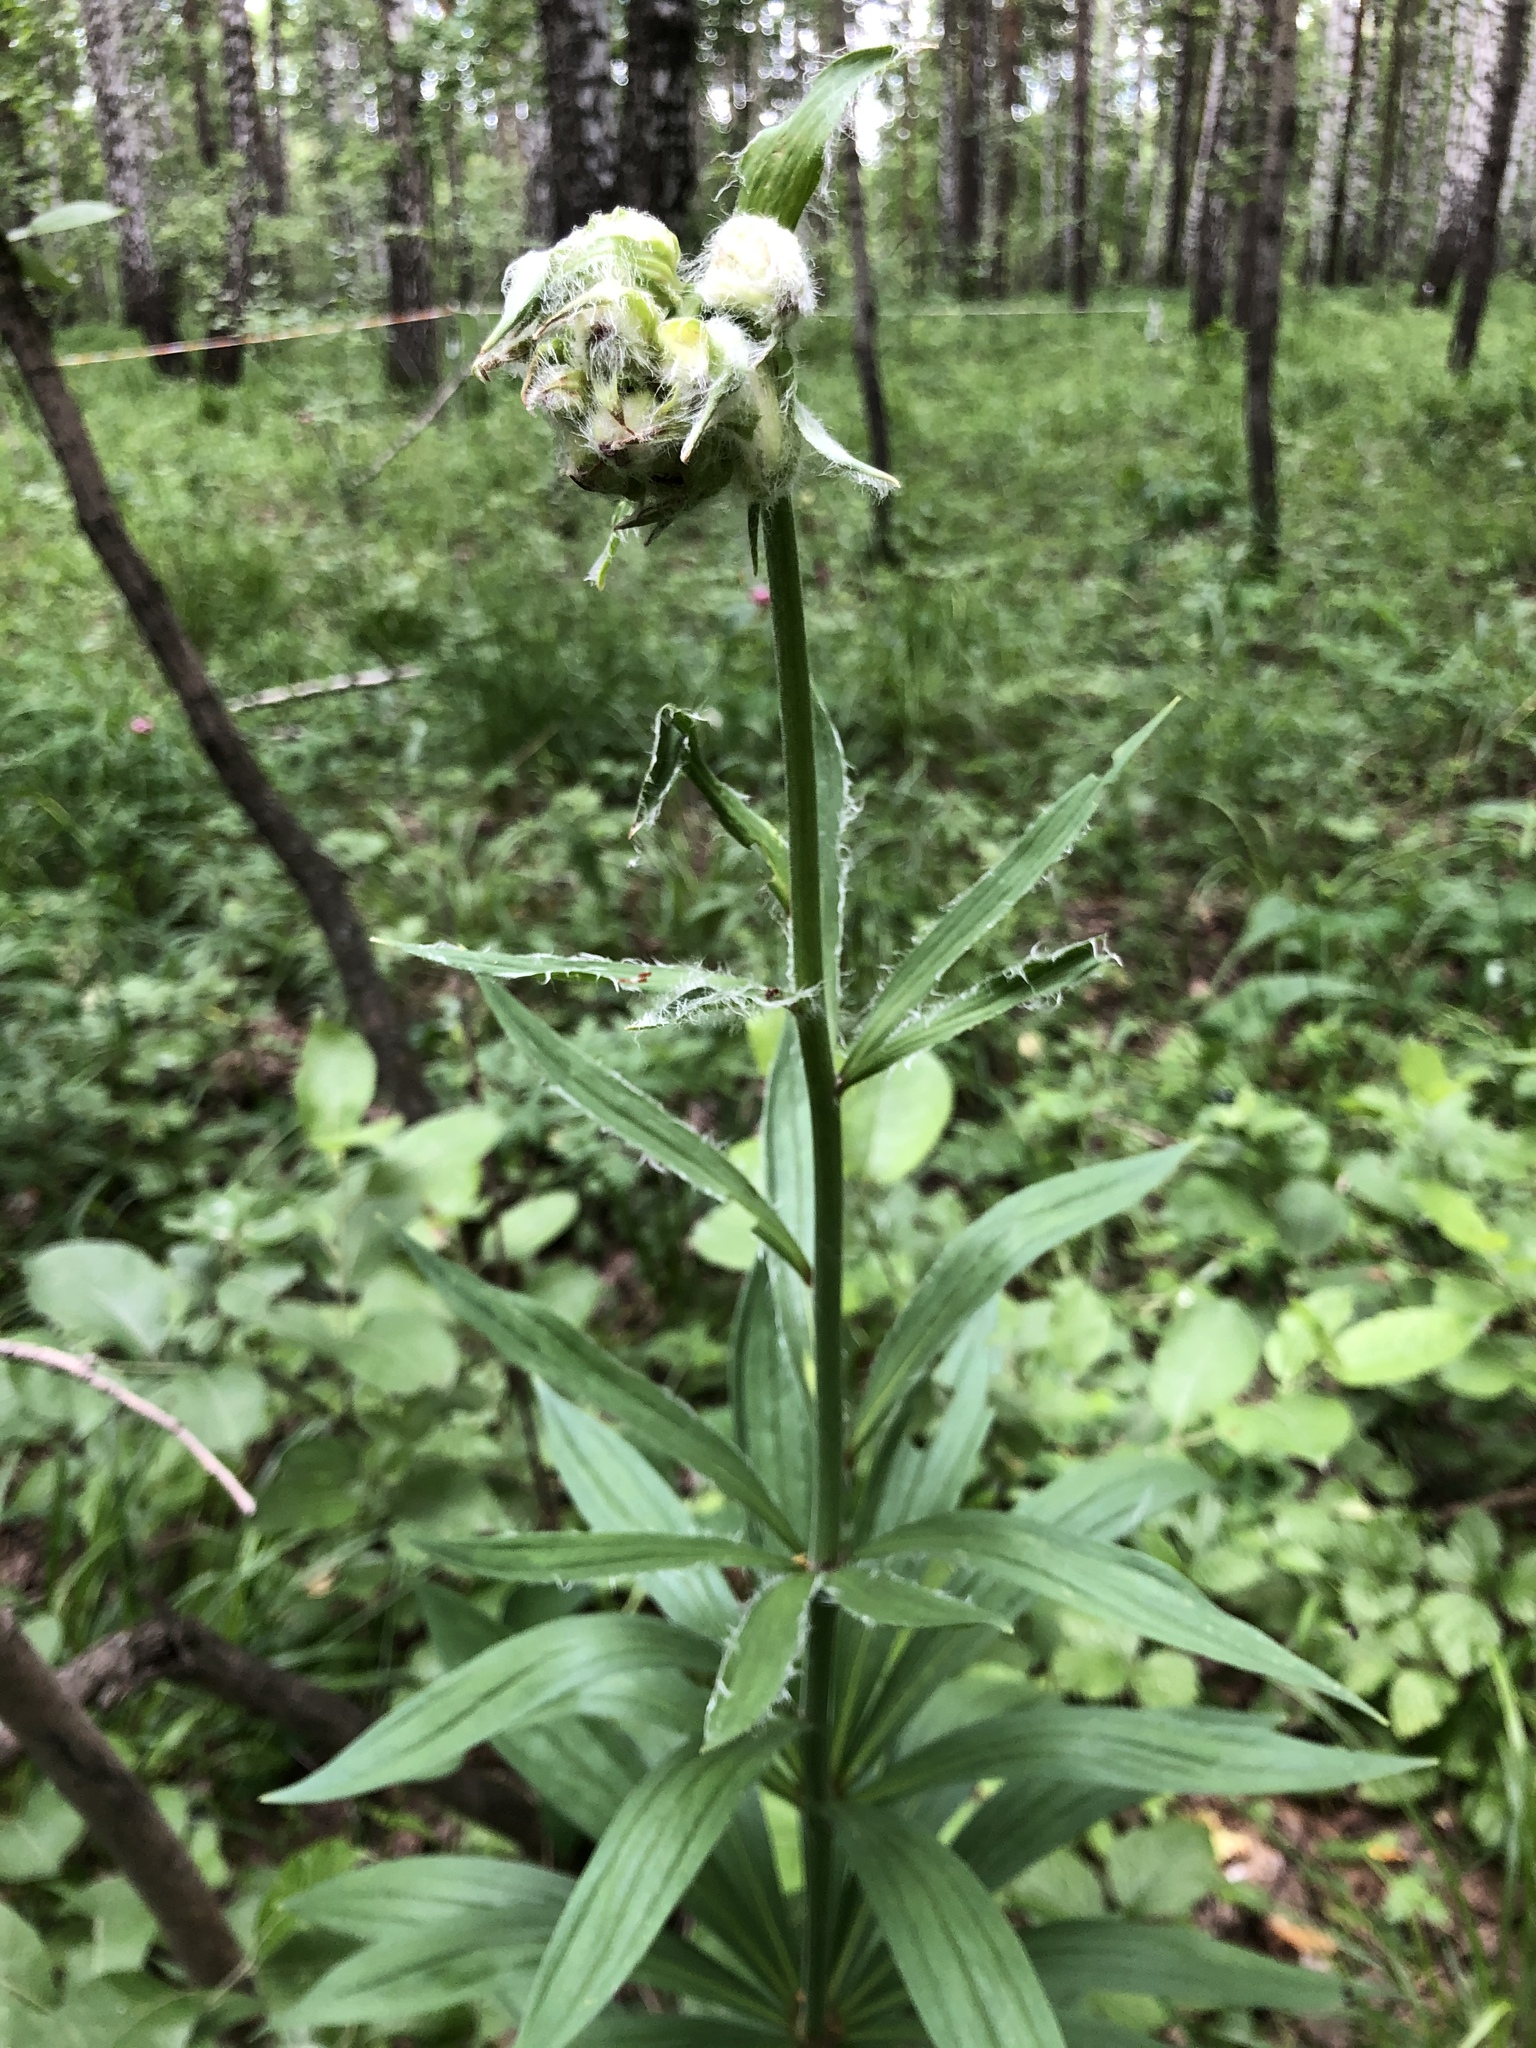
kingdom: Plantae
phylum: Tracheophyta
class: Liliopsida
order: Liliales
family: Liliaceae
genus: Lilium
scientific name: Lilium martagon
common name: Martagon lily
